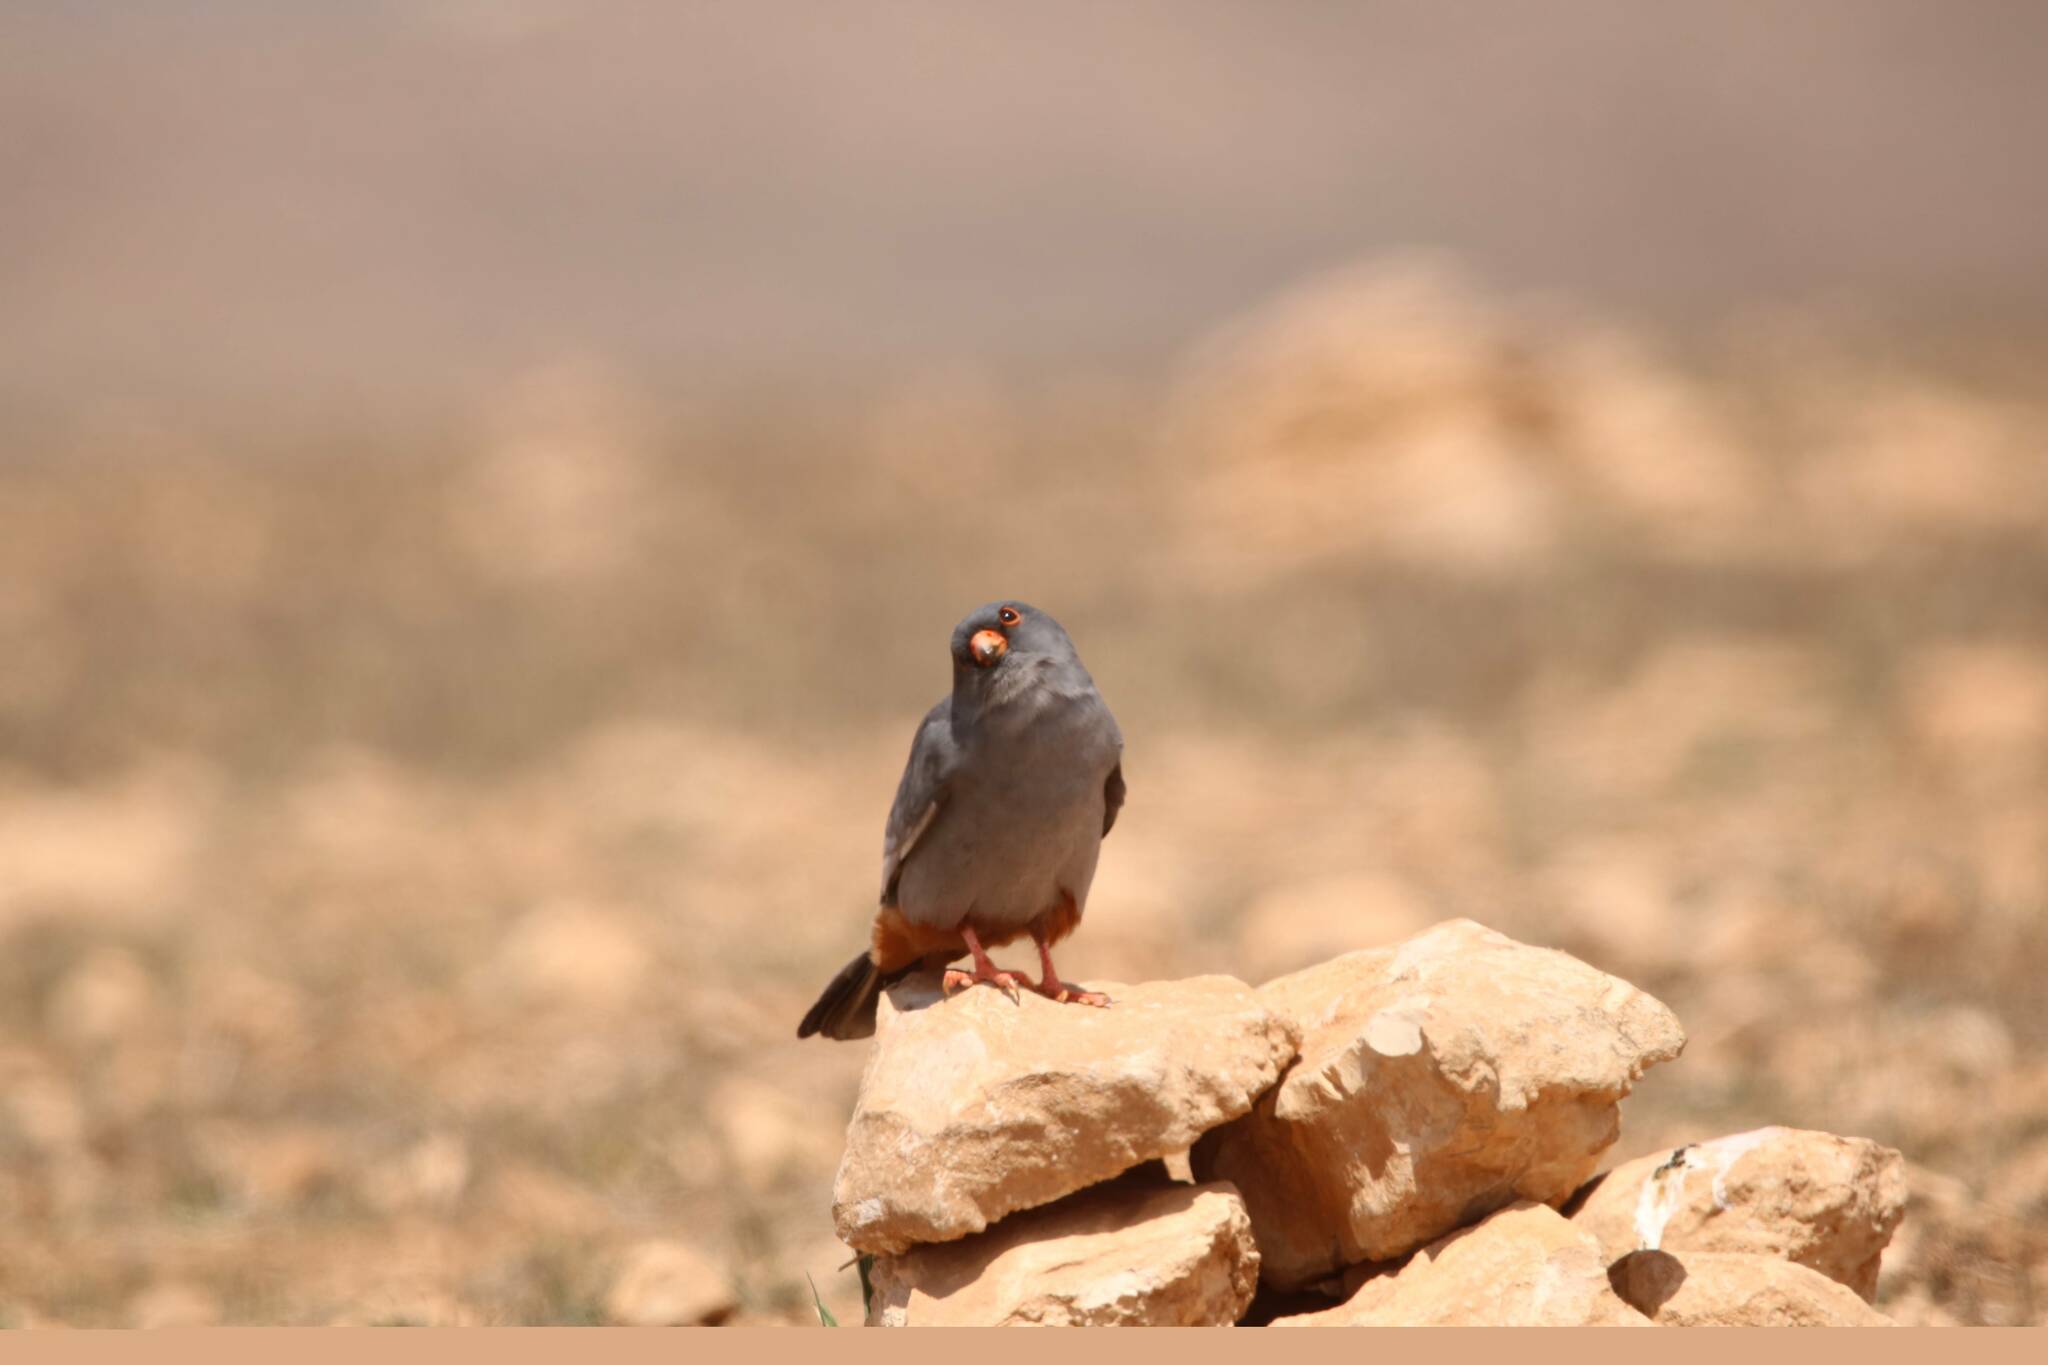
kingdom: Animalia
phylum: Chordata
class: Aves
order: Falconiformes
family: Falconidae
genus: Falco
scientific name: Falco vespertinus
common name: Red-footed falcon
